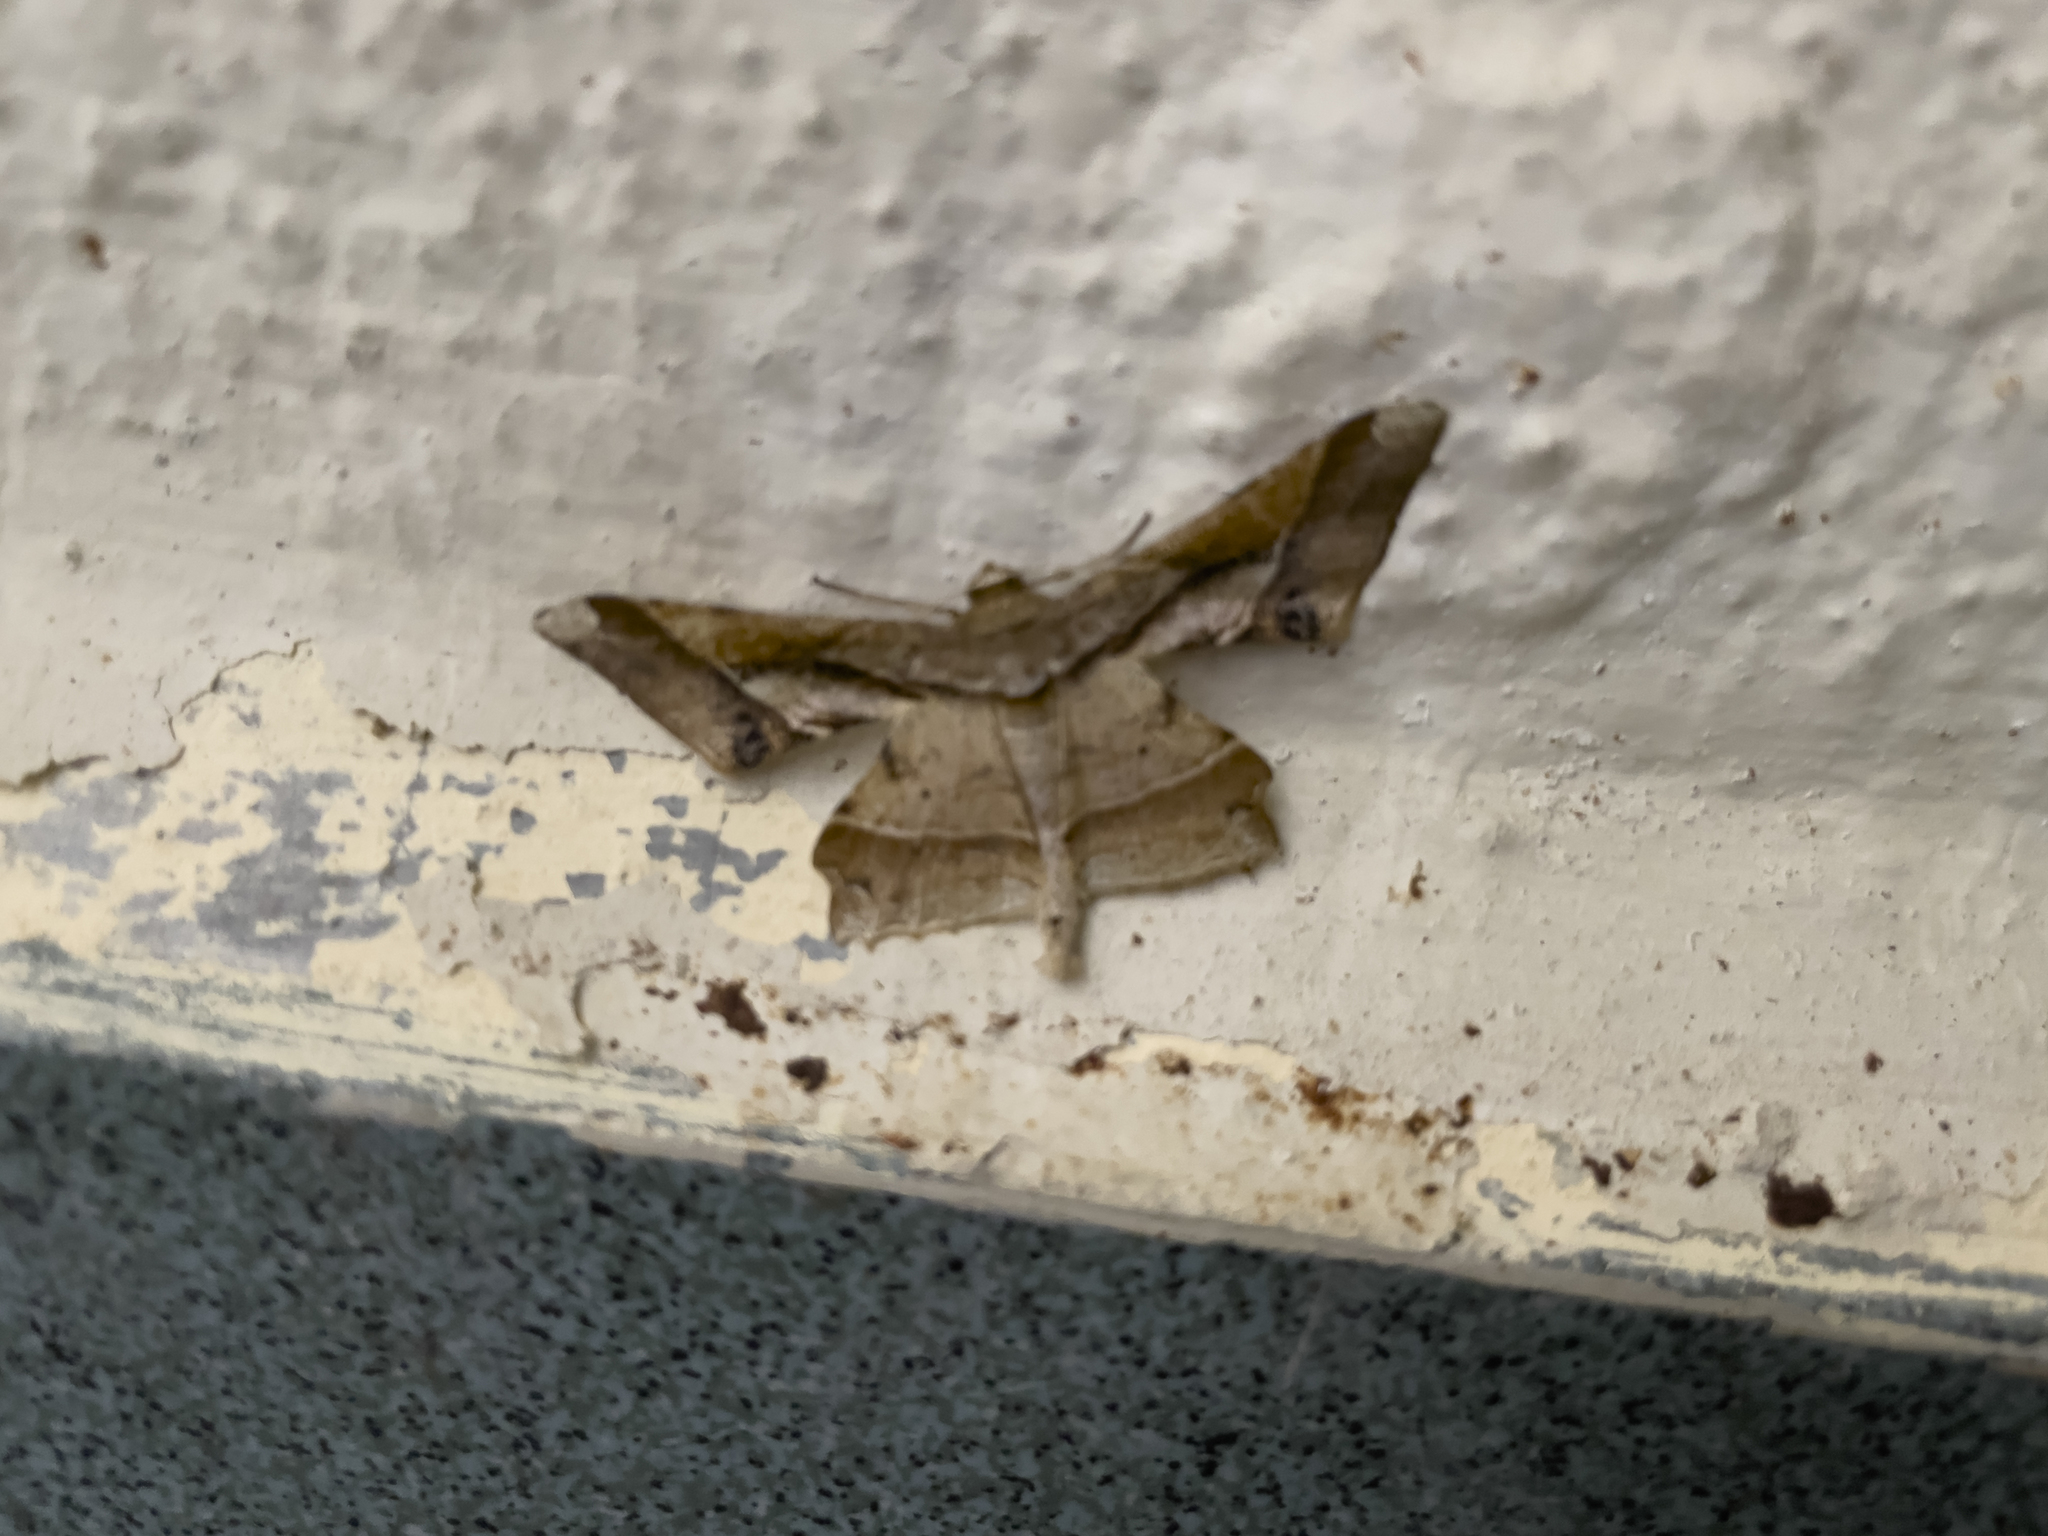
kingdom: Animalia
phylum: Arthropoda
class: Insecta
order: Lepidoptera
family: Geometridae
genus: Krananda
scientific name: Krananda latimarginaria
